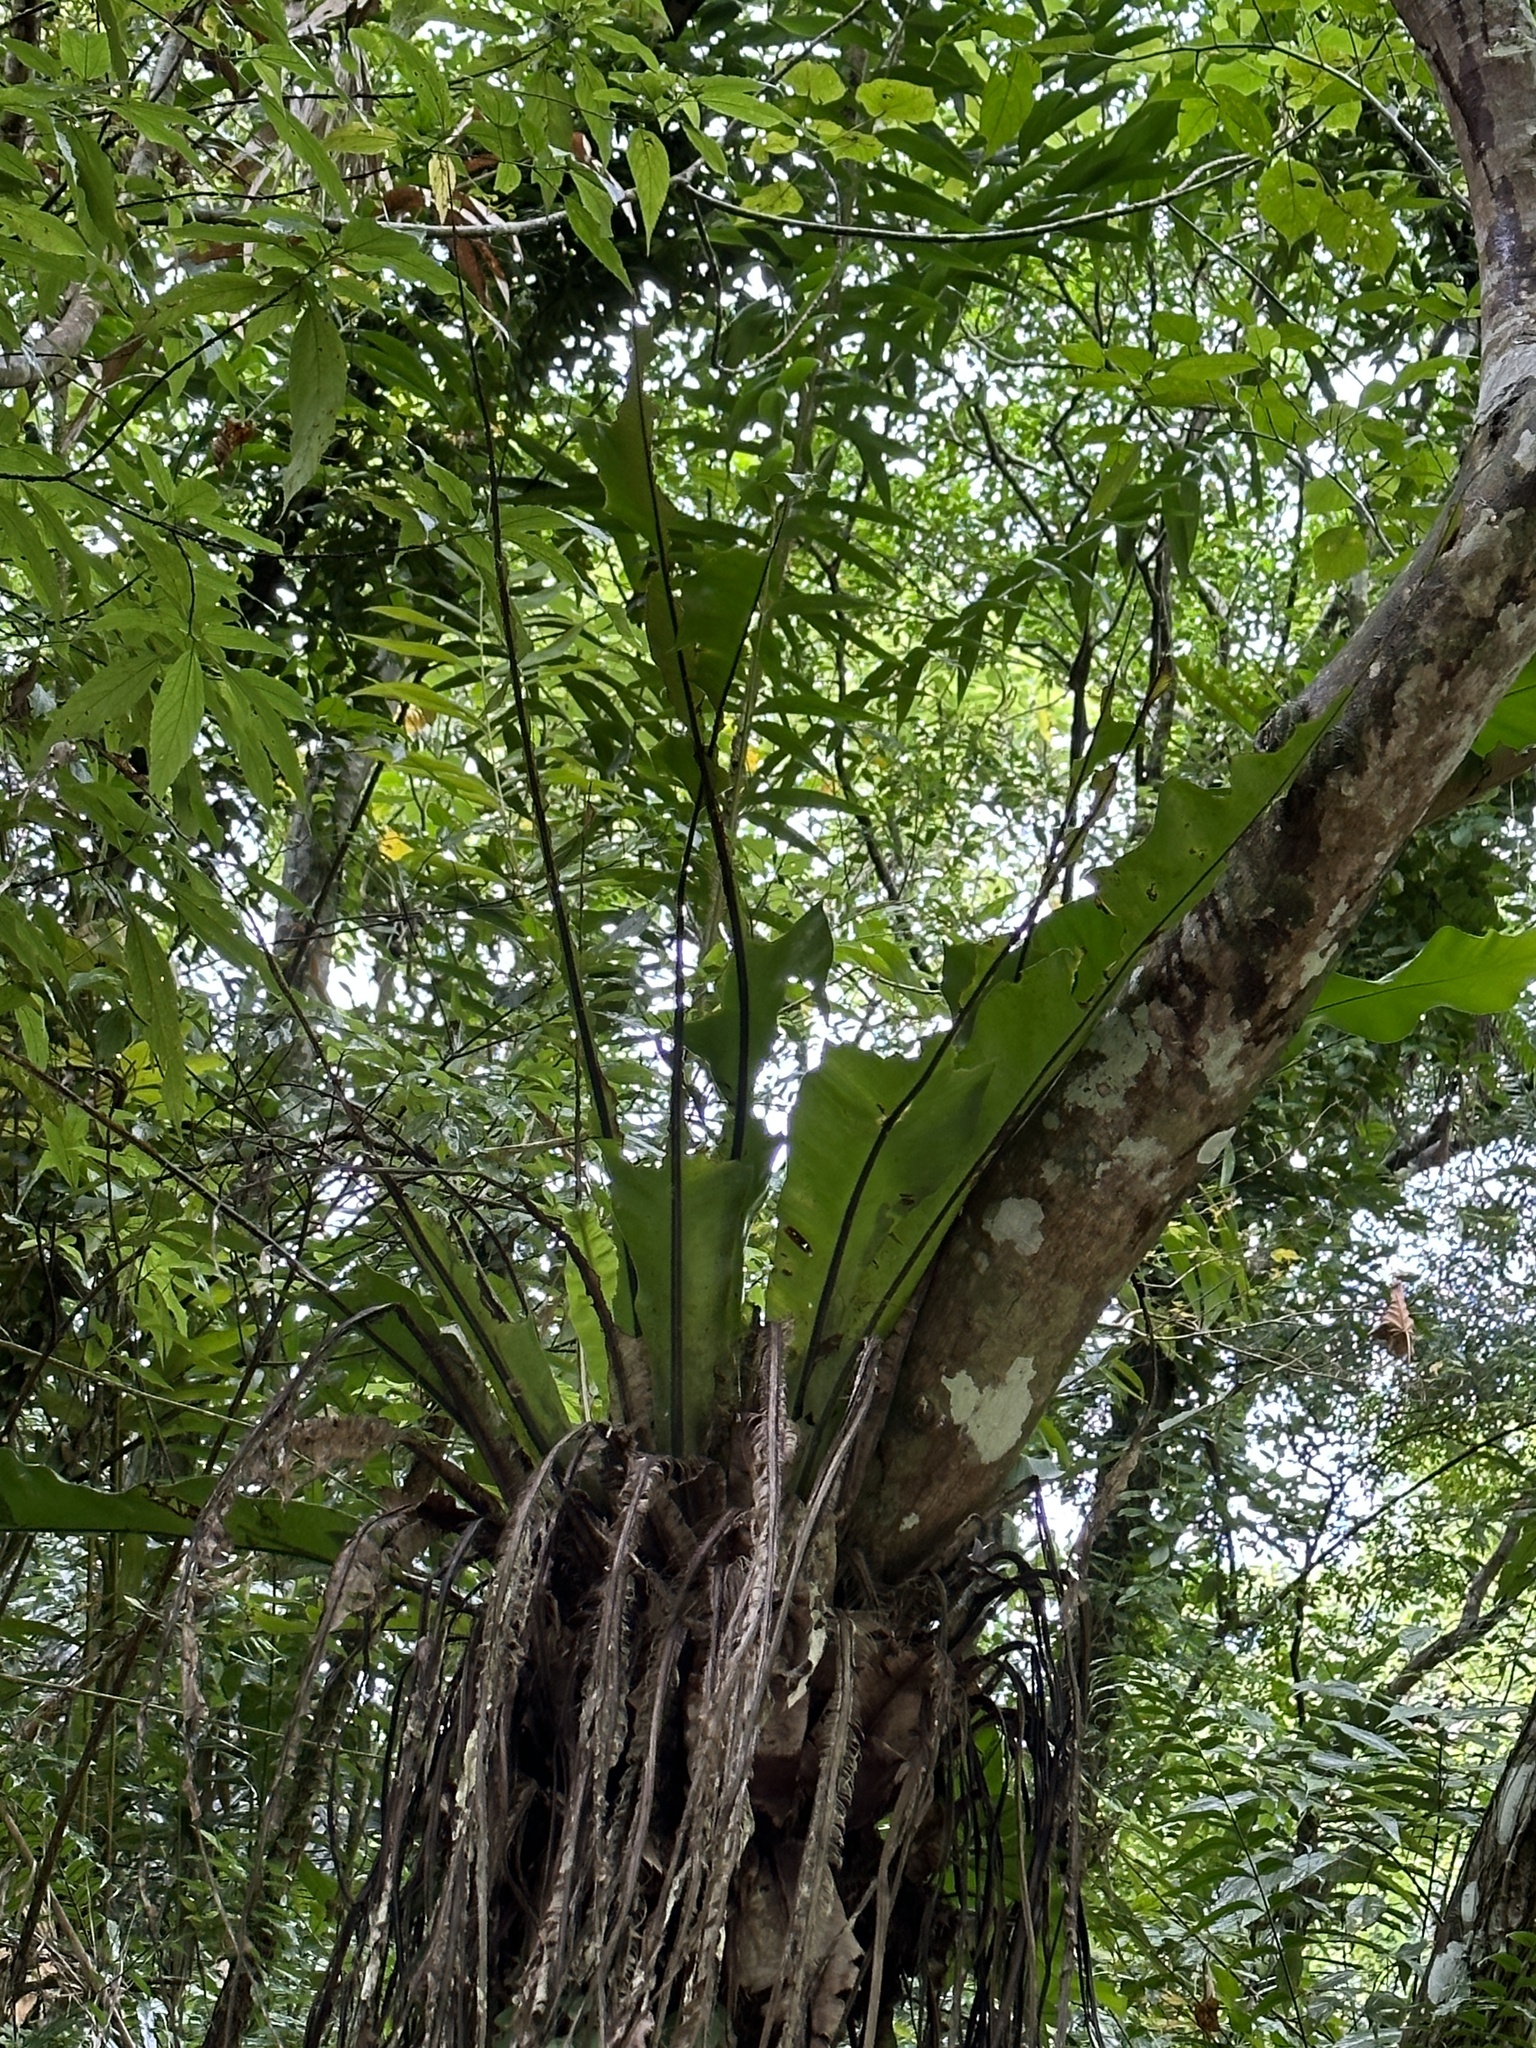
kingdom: Plantae
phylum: Tracheophyta
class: Polypodiopsida
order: Polypodiales
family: Aspleniaceae
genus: Asplenium
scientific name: Asplenium nidus
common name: Bird's-nest fern
